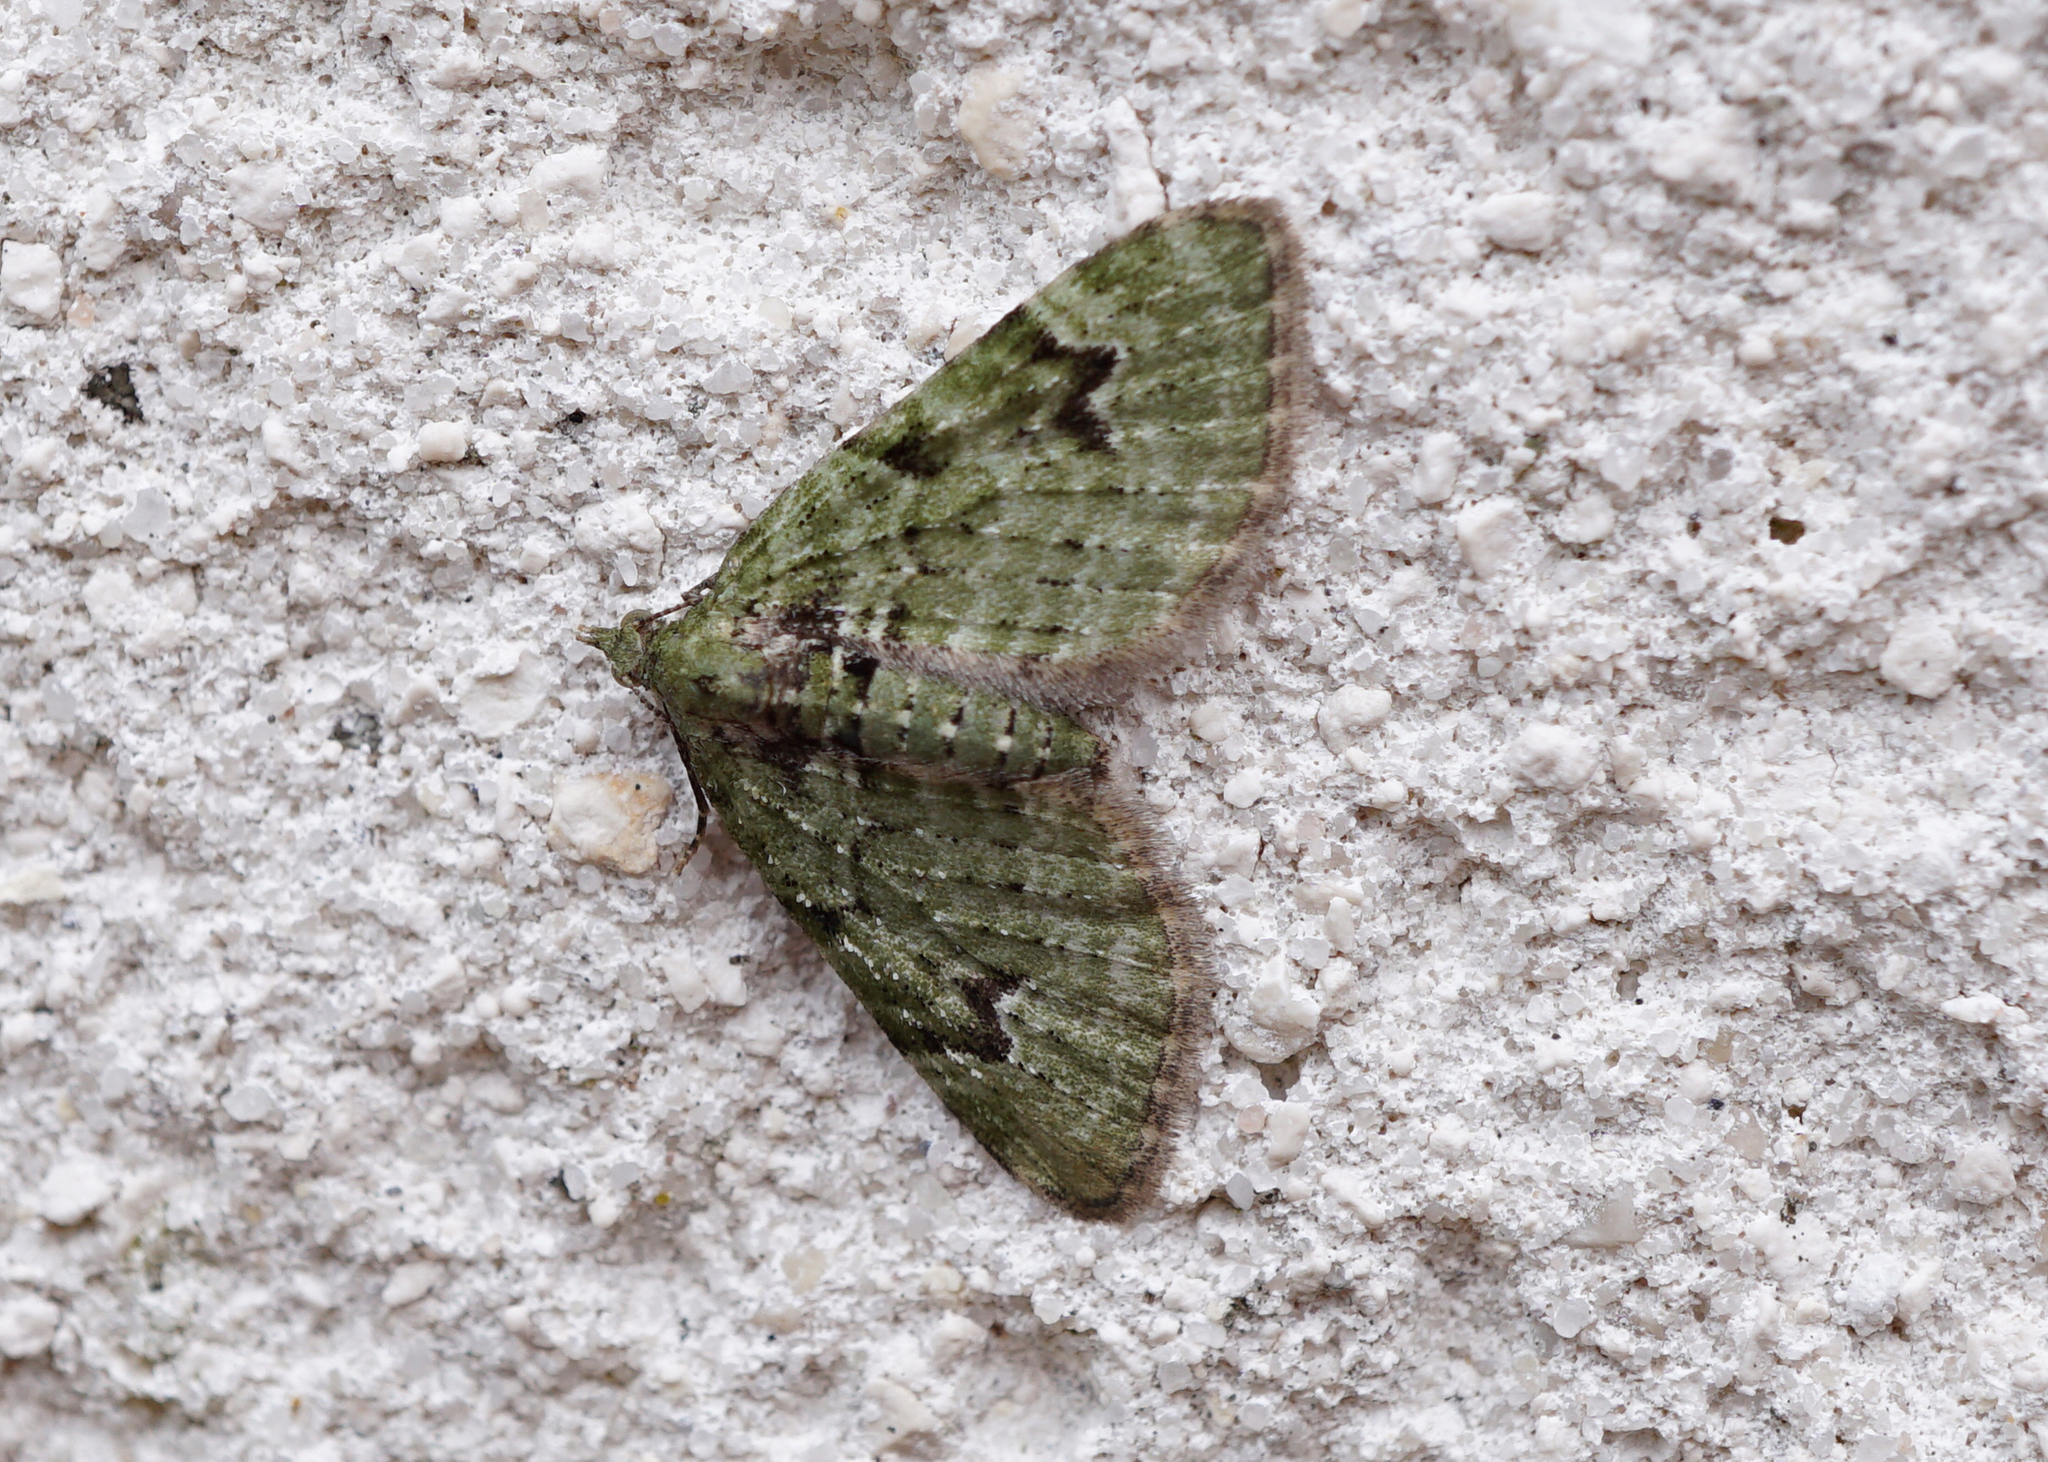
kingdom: Animalia
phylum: Arthropoda
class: Insecta
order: Lepidoptera
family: Geometridae
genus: Chloroclystis
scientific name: Chloroclystis v-ata
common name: V-pug
